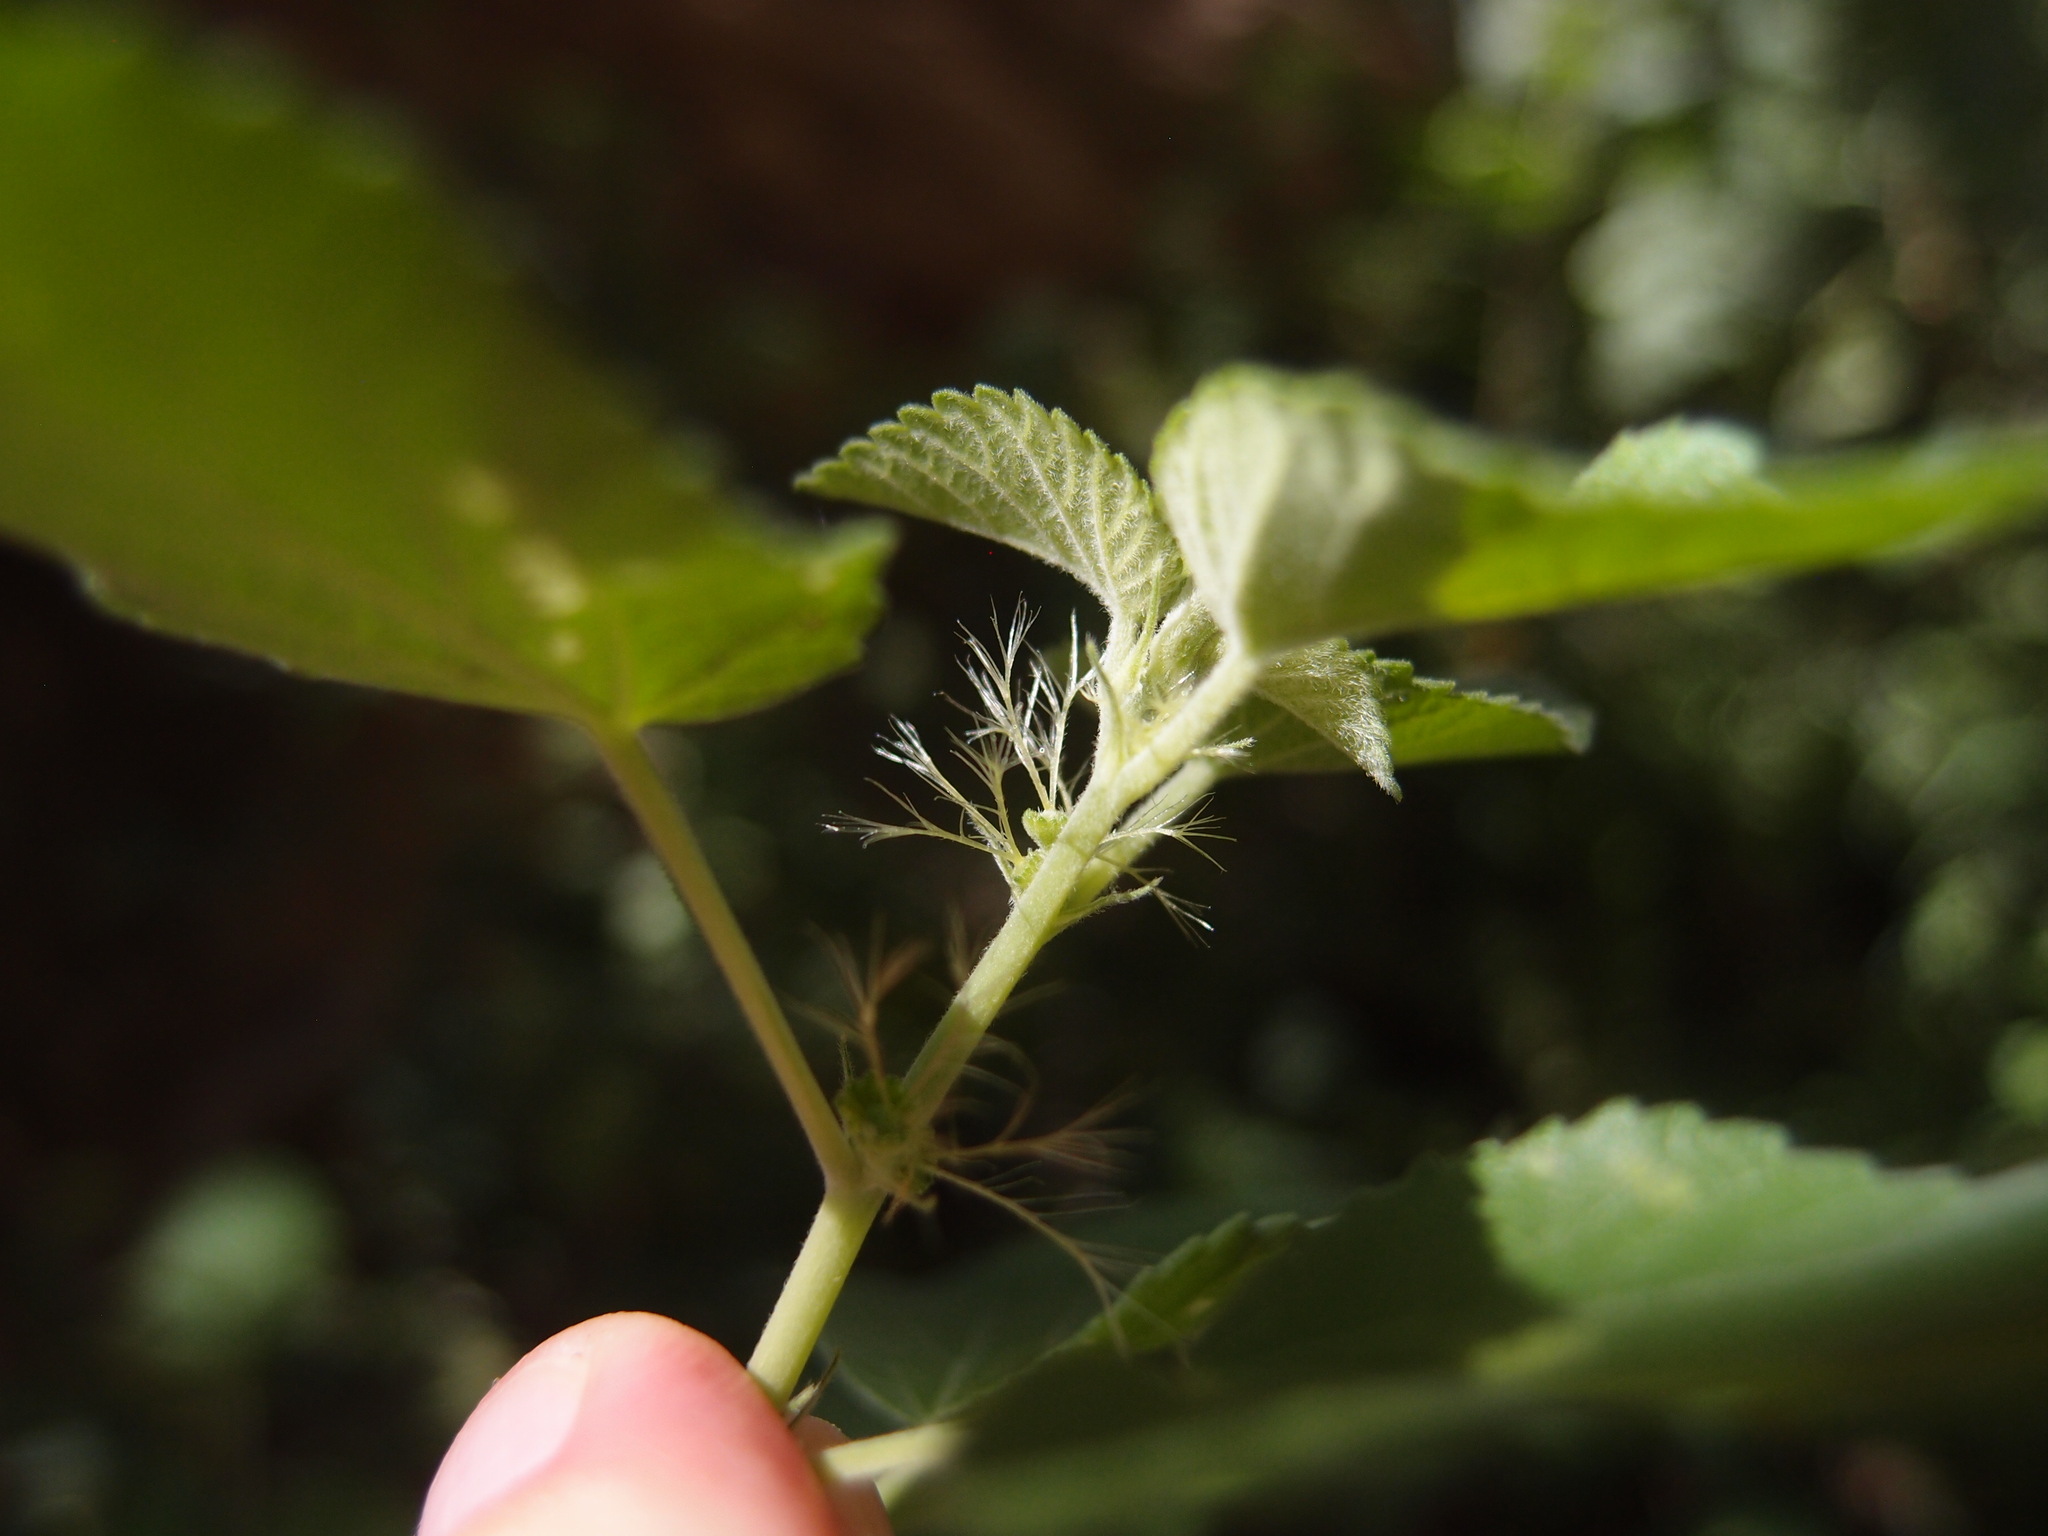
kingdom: Plantae
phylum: Tracheophyta
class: Magnoliopsida
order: Malpighiales
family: Euphorbiaceae
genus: Acalypha
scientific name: Acalypha californica
